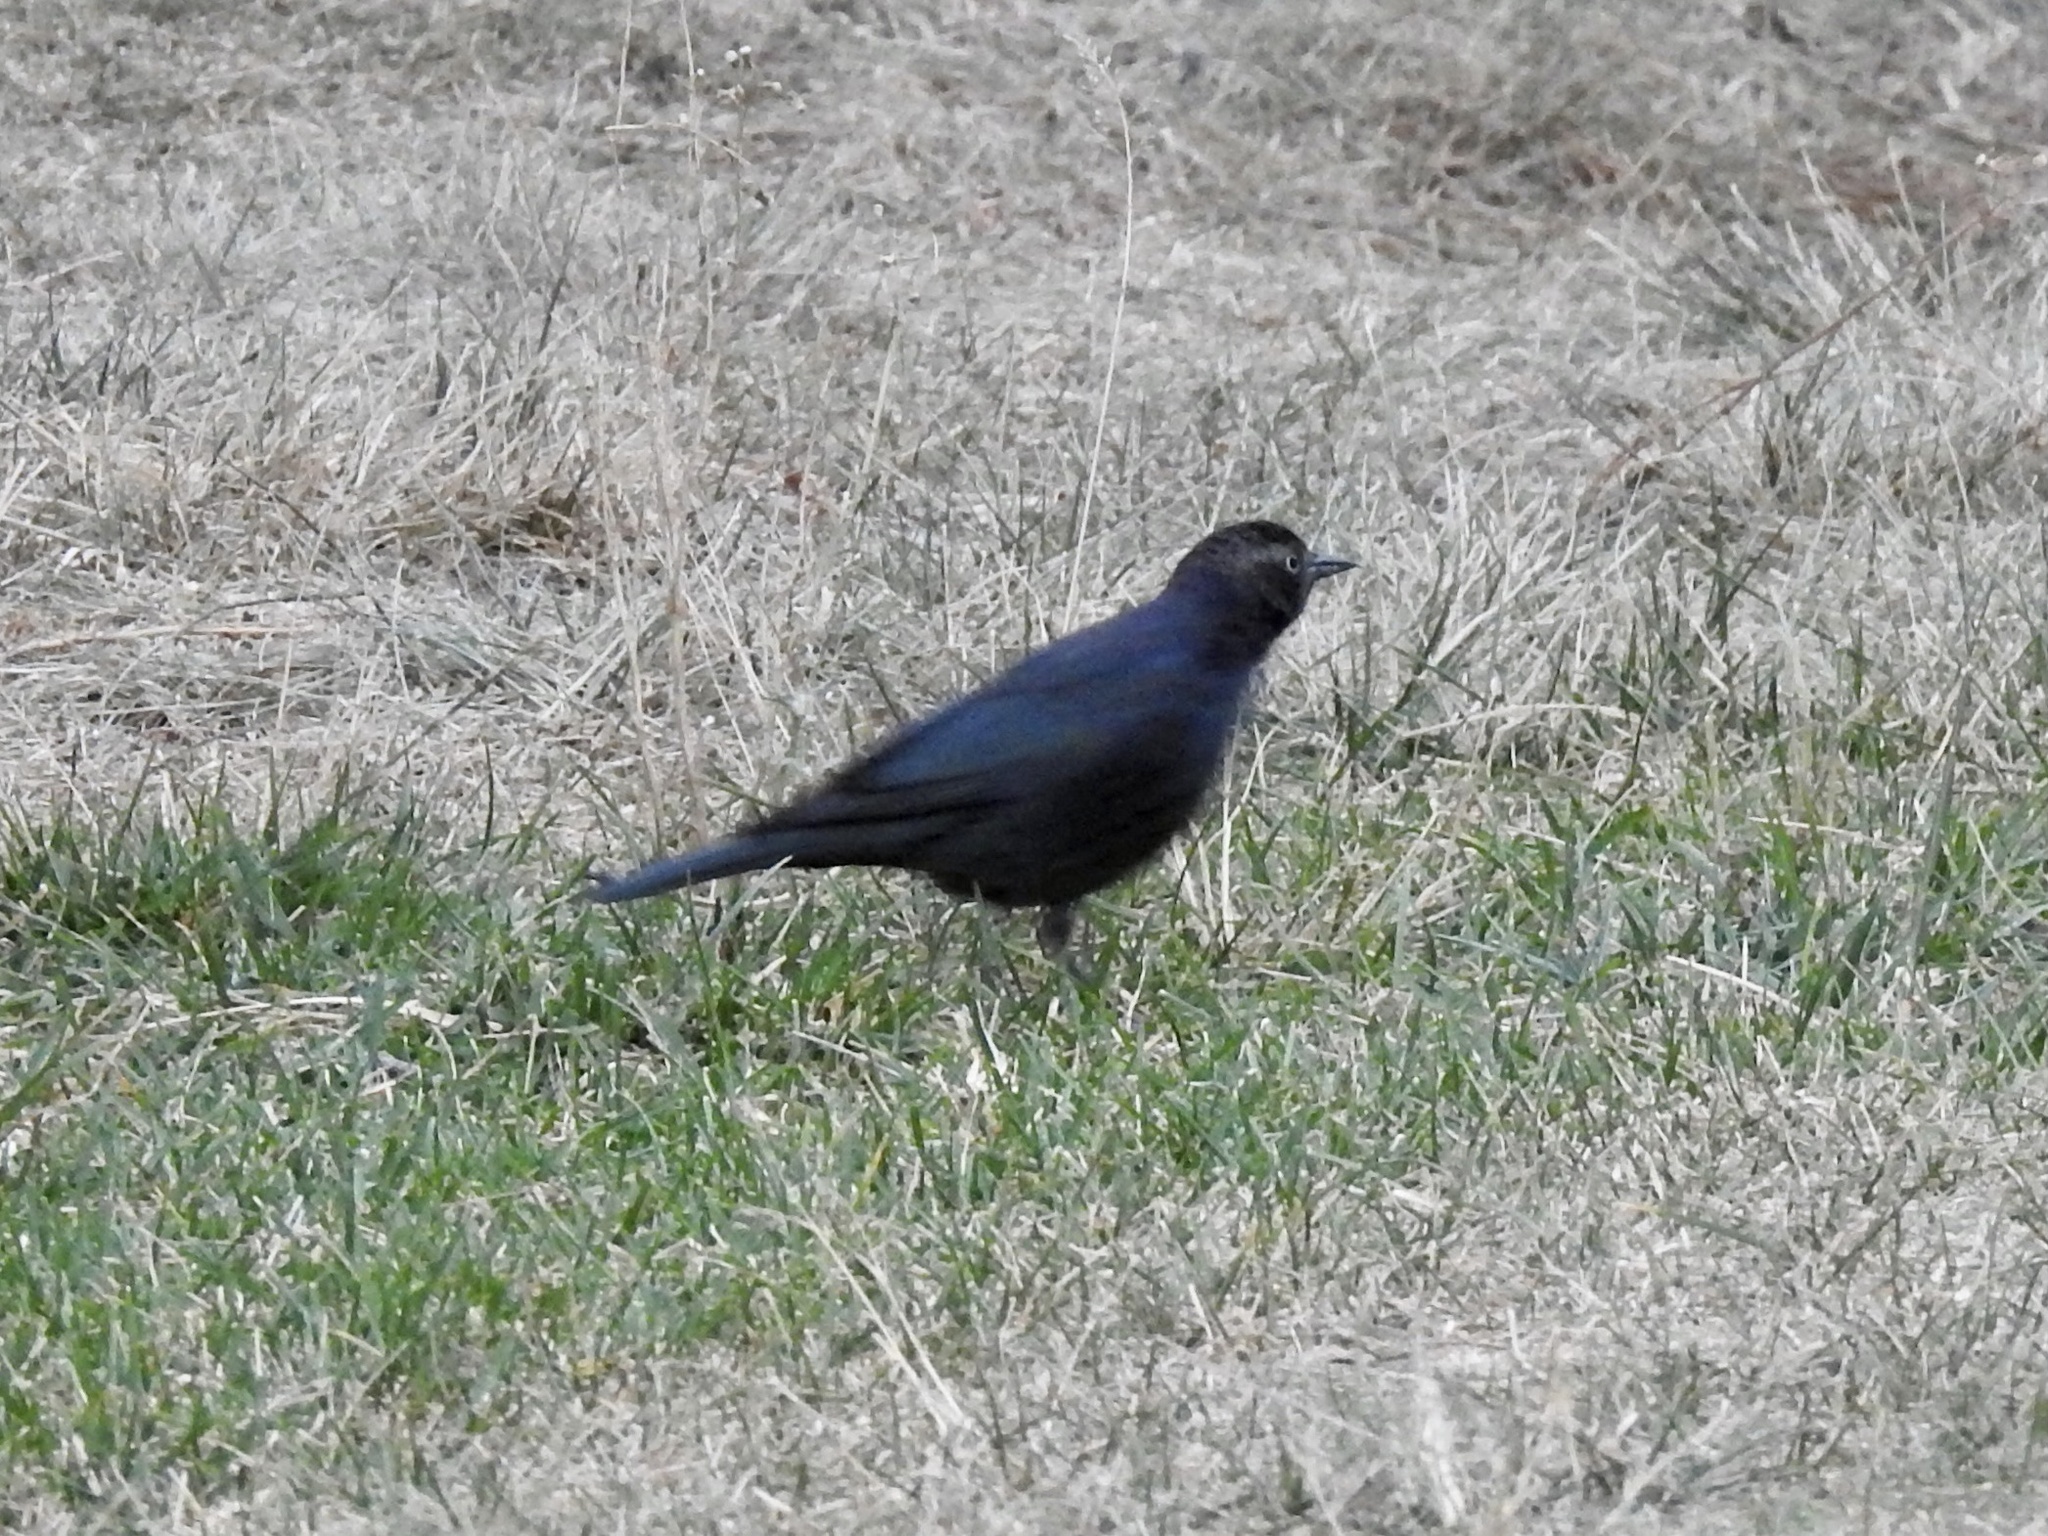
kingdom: Animalia
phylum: Chordata
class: Aves
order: Passeriformes
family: Icteridae
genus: Euphagus
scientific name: Euphagus cyanocephalus
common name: Brewer's blackbird
